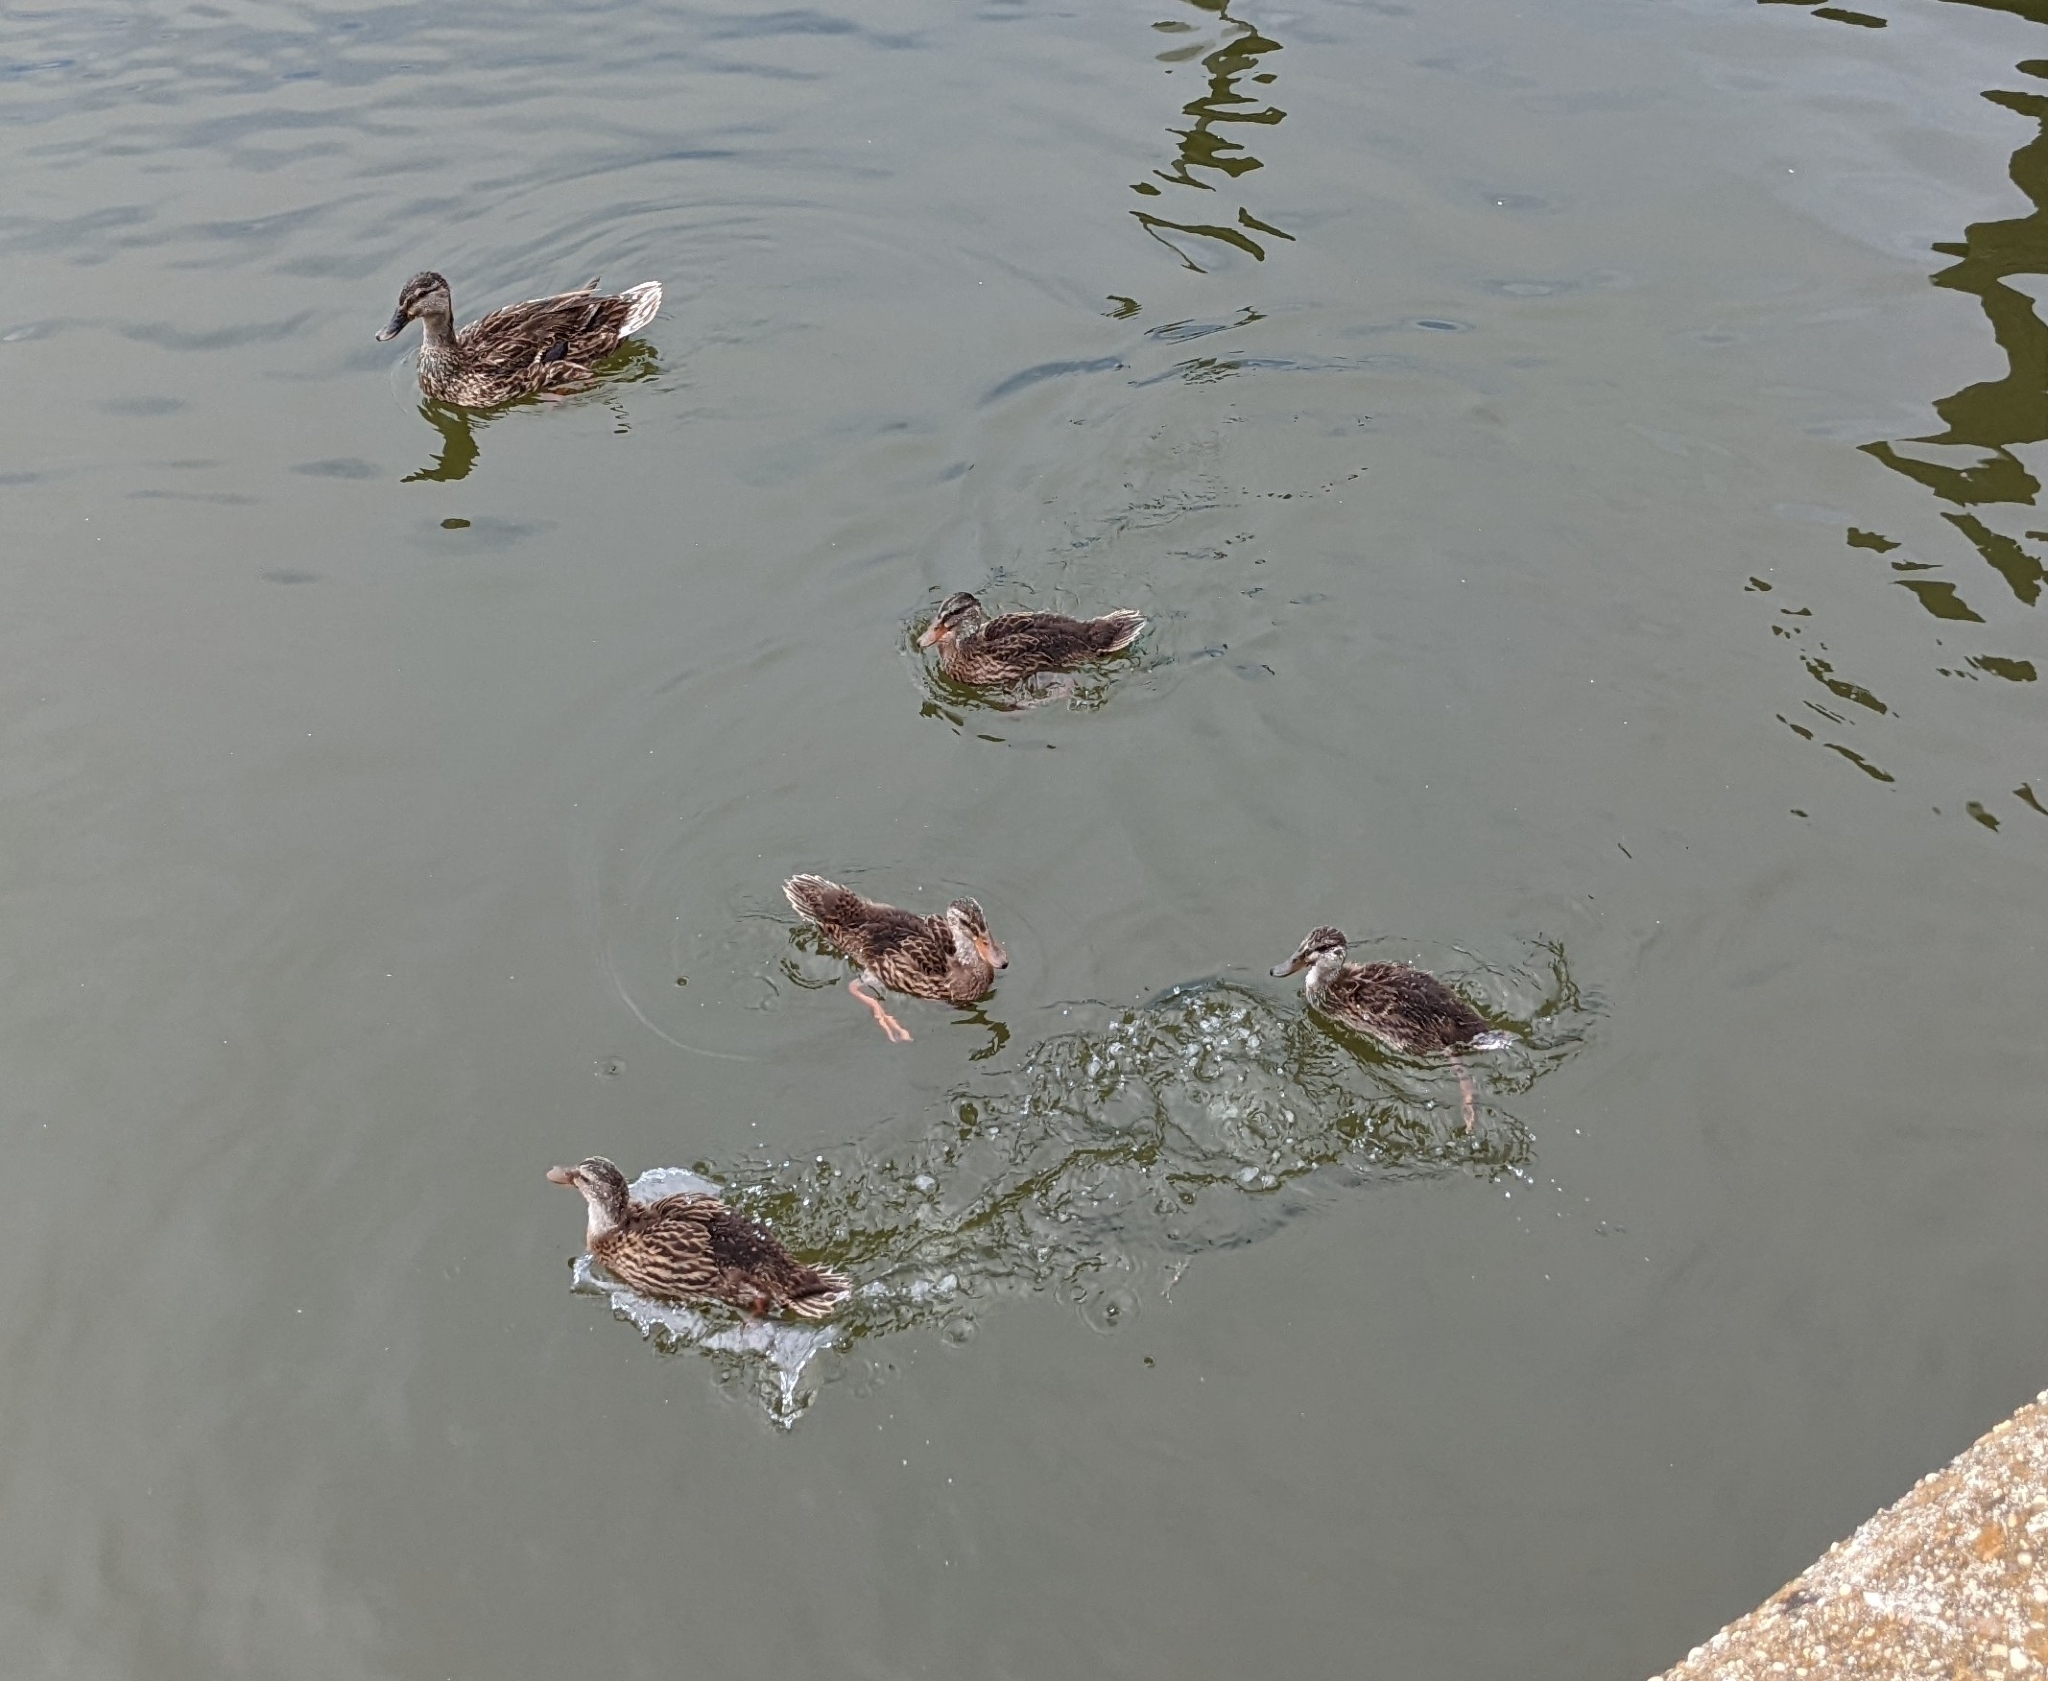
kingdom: Animalia
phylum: Chordata
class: Aves
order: Anseriformes
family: Anatidae
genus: Anas
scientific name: Anas platyrhynchos
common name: Mallard
